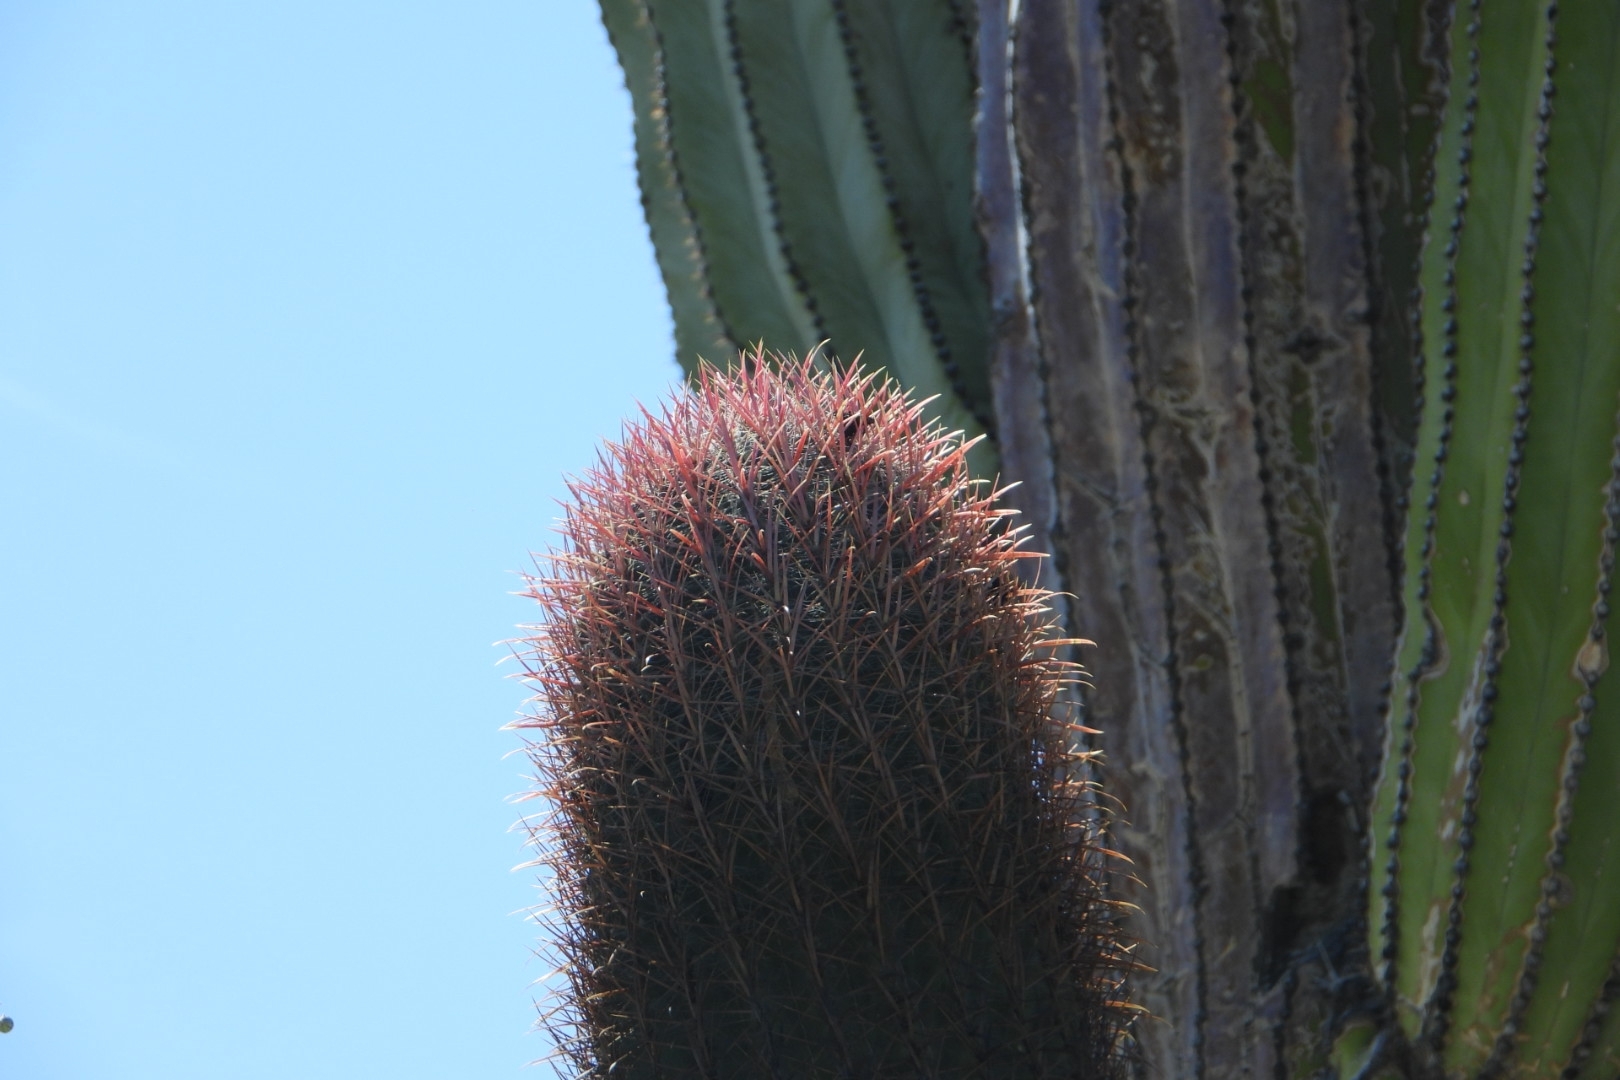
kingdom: Plantae
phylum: Tracheophyta
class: Magnoliopsida
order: Caryophyllales
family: Cactaceae
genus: Ferocactus
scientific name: Ferocactus gracilis
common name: Fire barrel cactus
